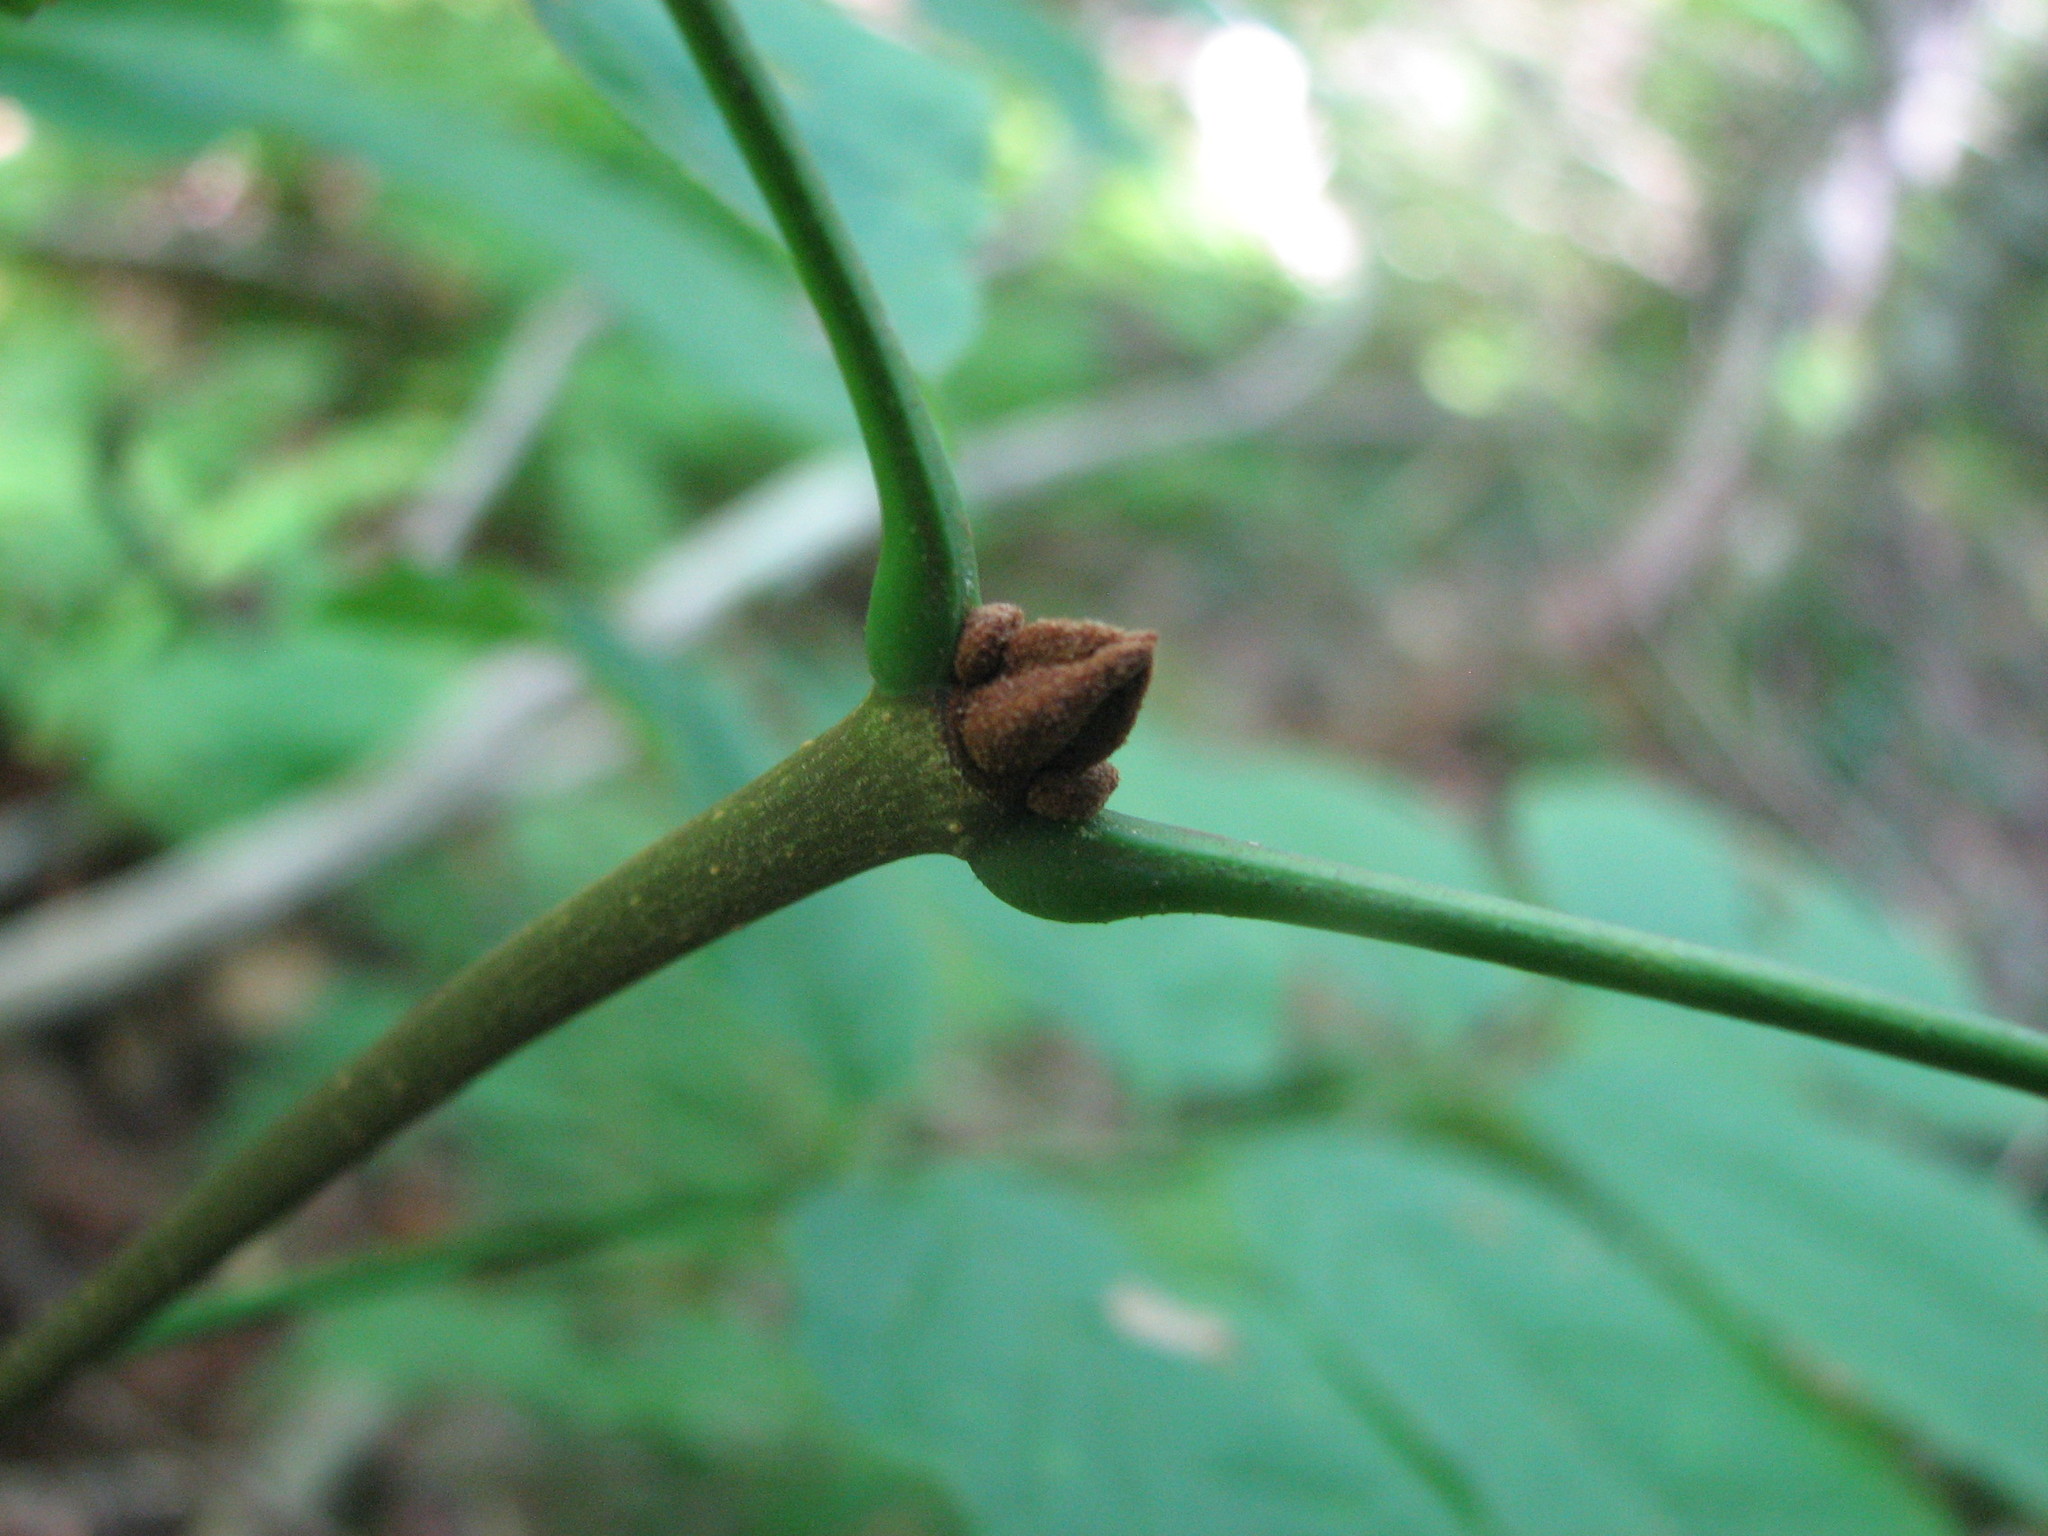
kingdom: Plantae
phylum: Tracheophyta
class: Magnoliopsida
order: Lamiales
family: Oleaceae
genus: Fraxinus
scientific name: Fraxinus pennsylvanica
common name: Green ash
